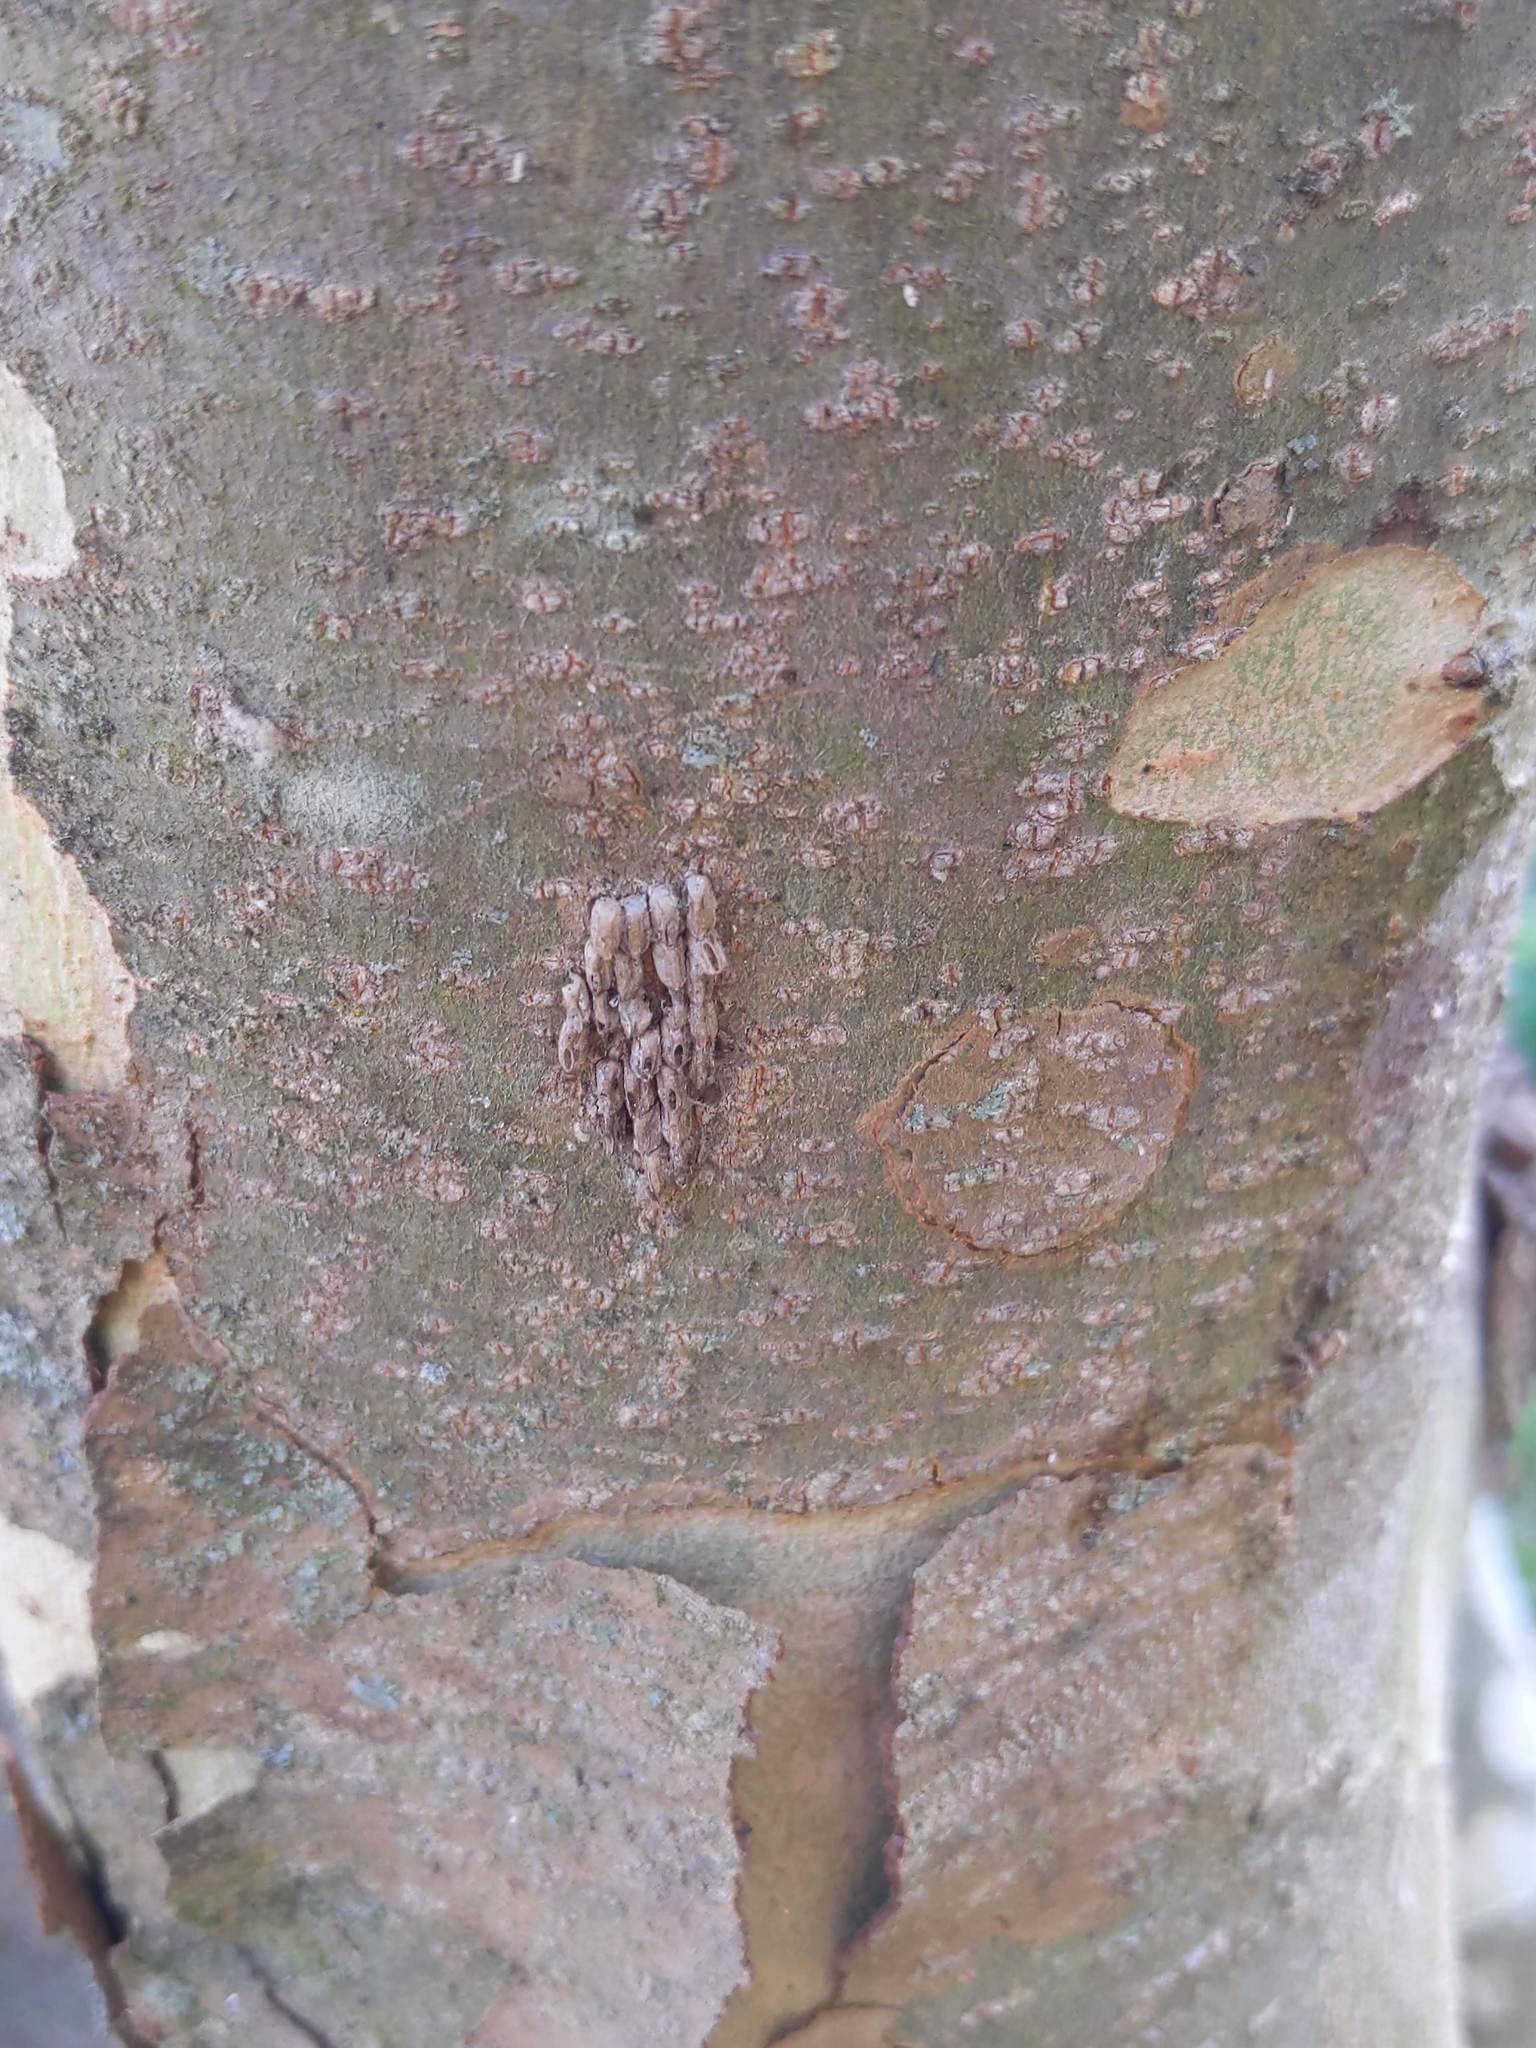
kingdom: Animalia
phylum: Arthropoda
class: Insecta
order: Hemiptera
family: Fulgoridae
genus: Lycorma
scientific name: Lycorma delicatula
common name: Spotted lanternfly
